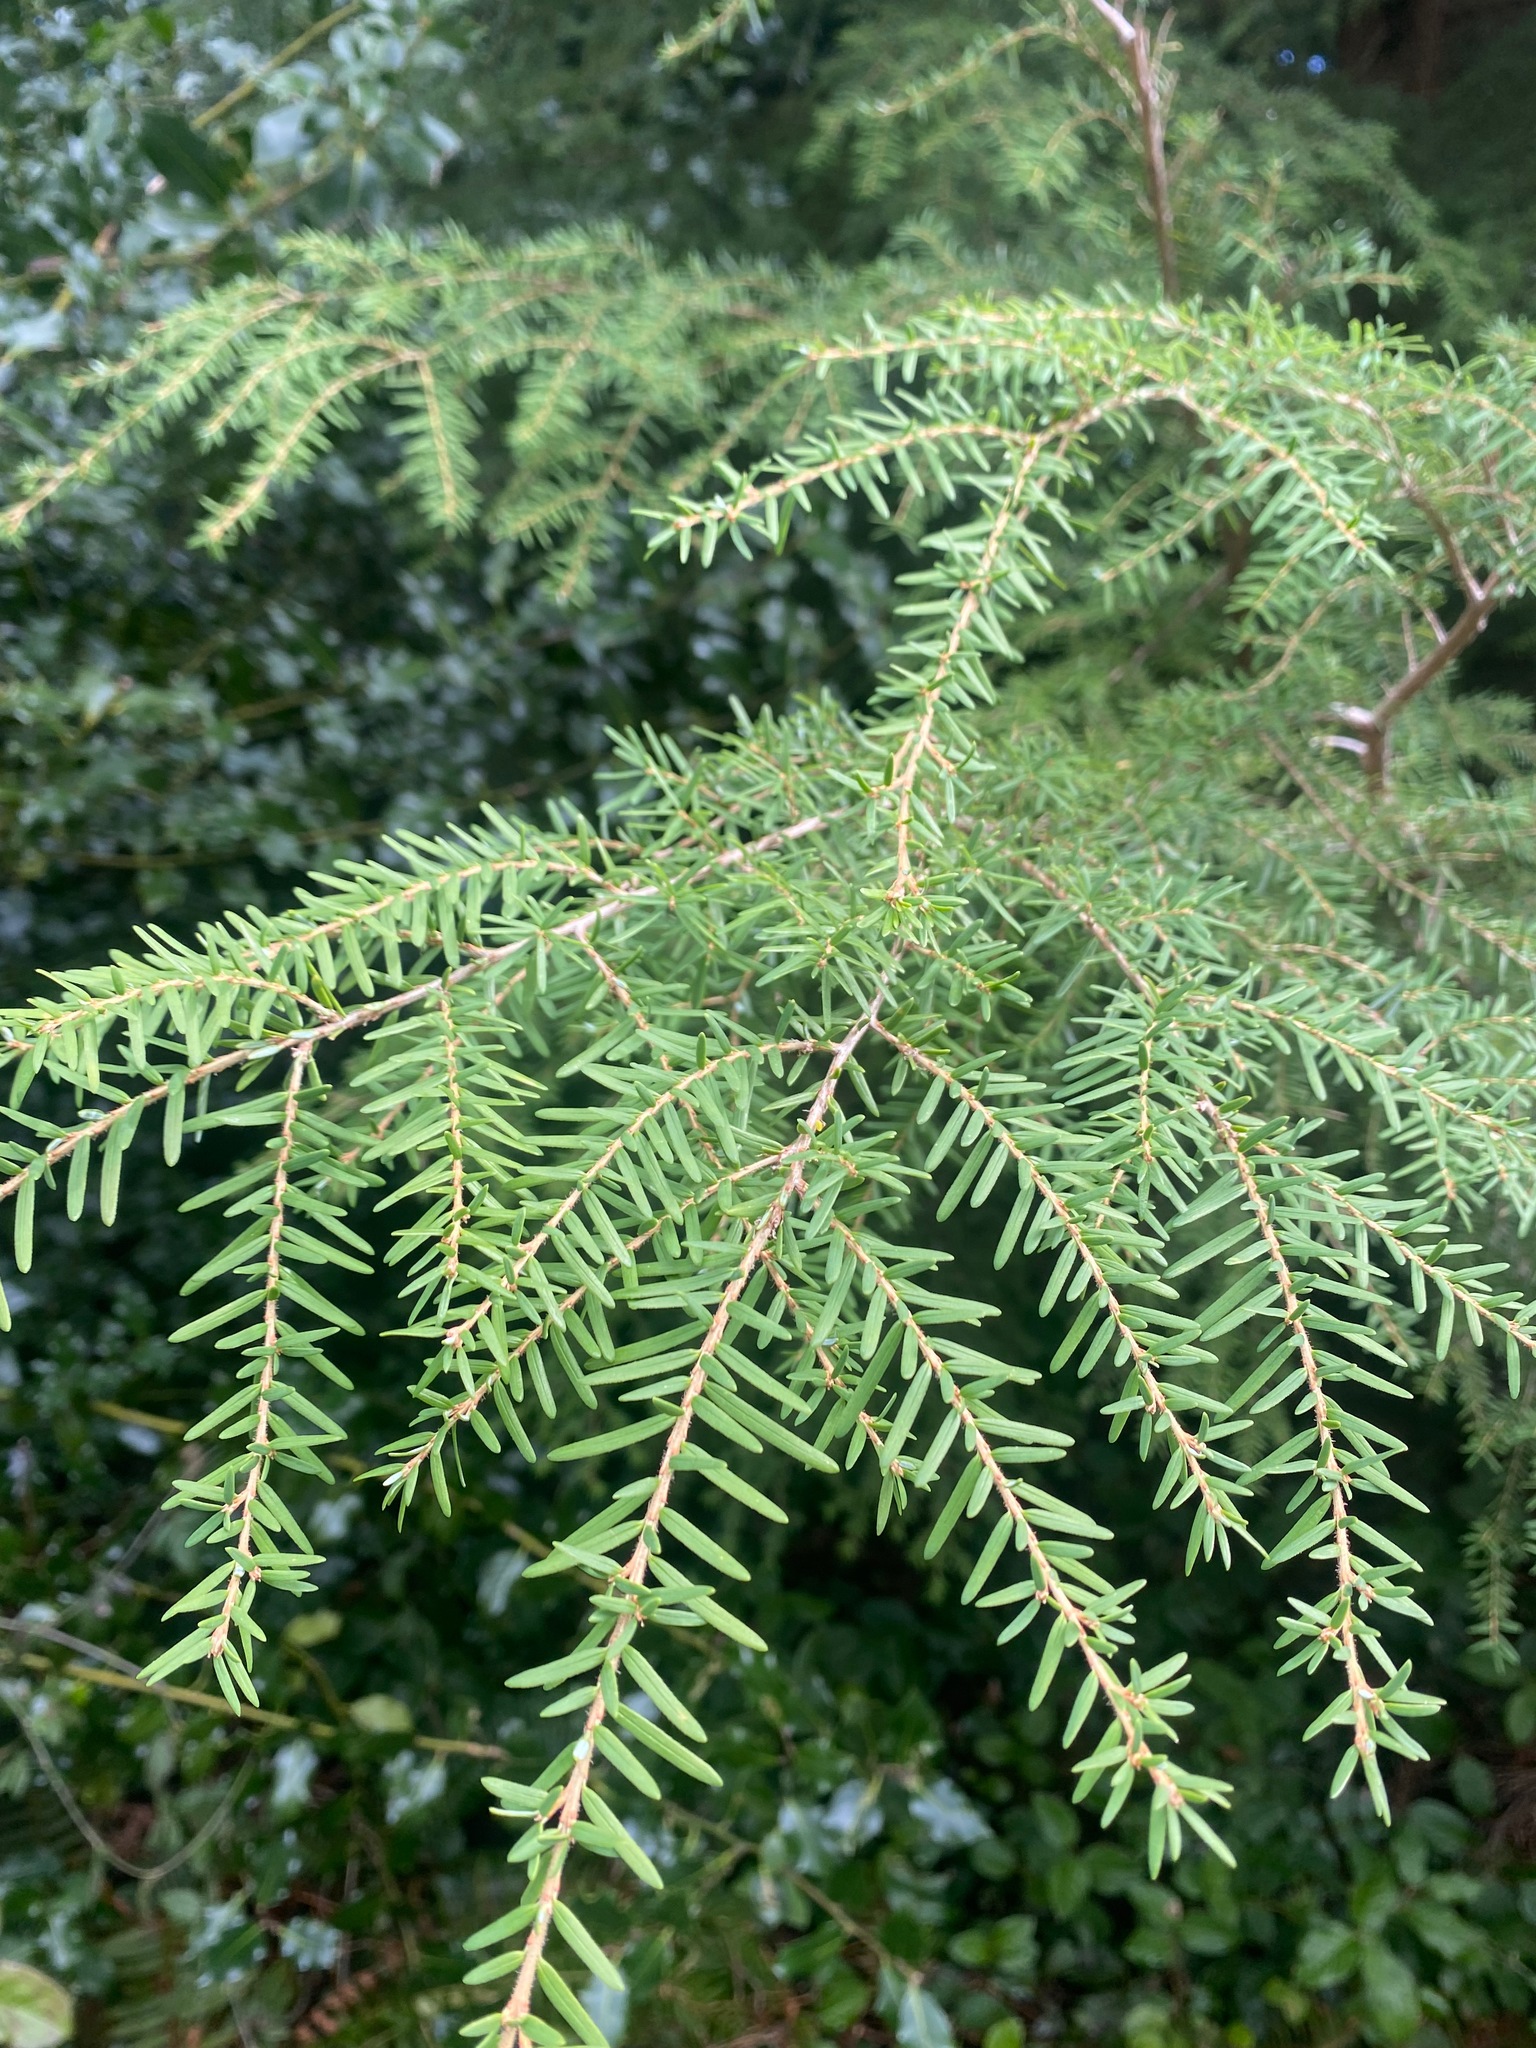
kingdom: Plantae
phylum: Tracheophyta
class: Pinopsida
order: Pinales
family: Pinaceae
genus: Tsuga
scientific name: Tsuga heterophylla
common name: Western hemlock
